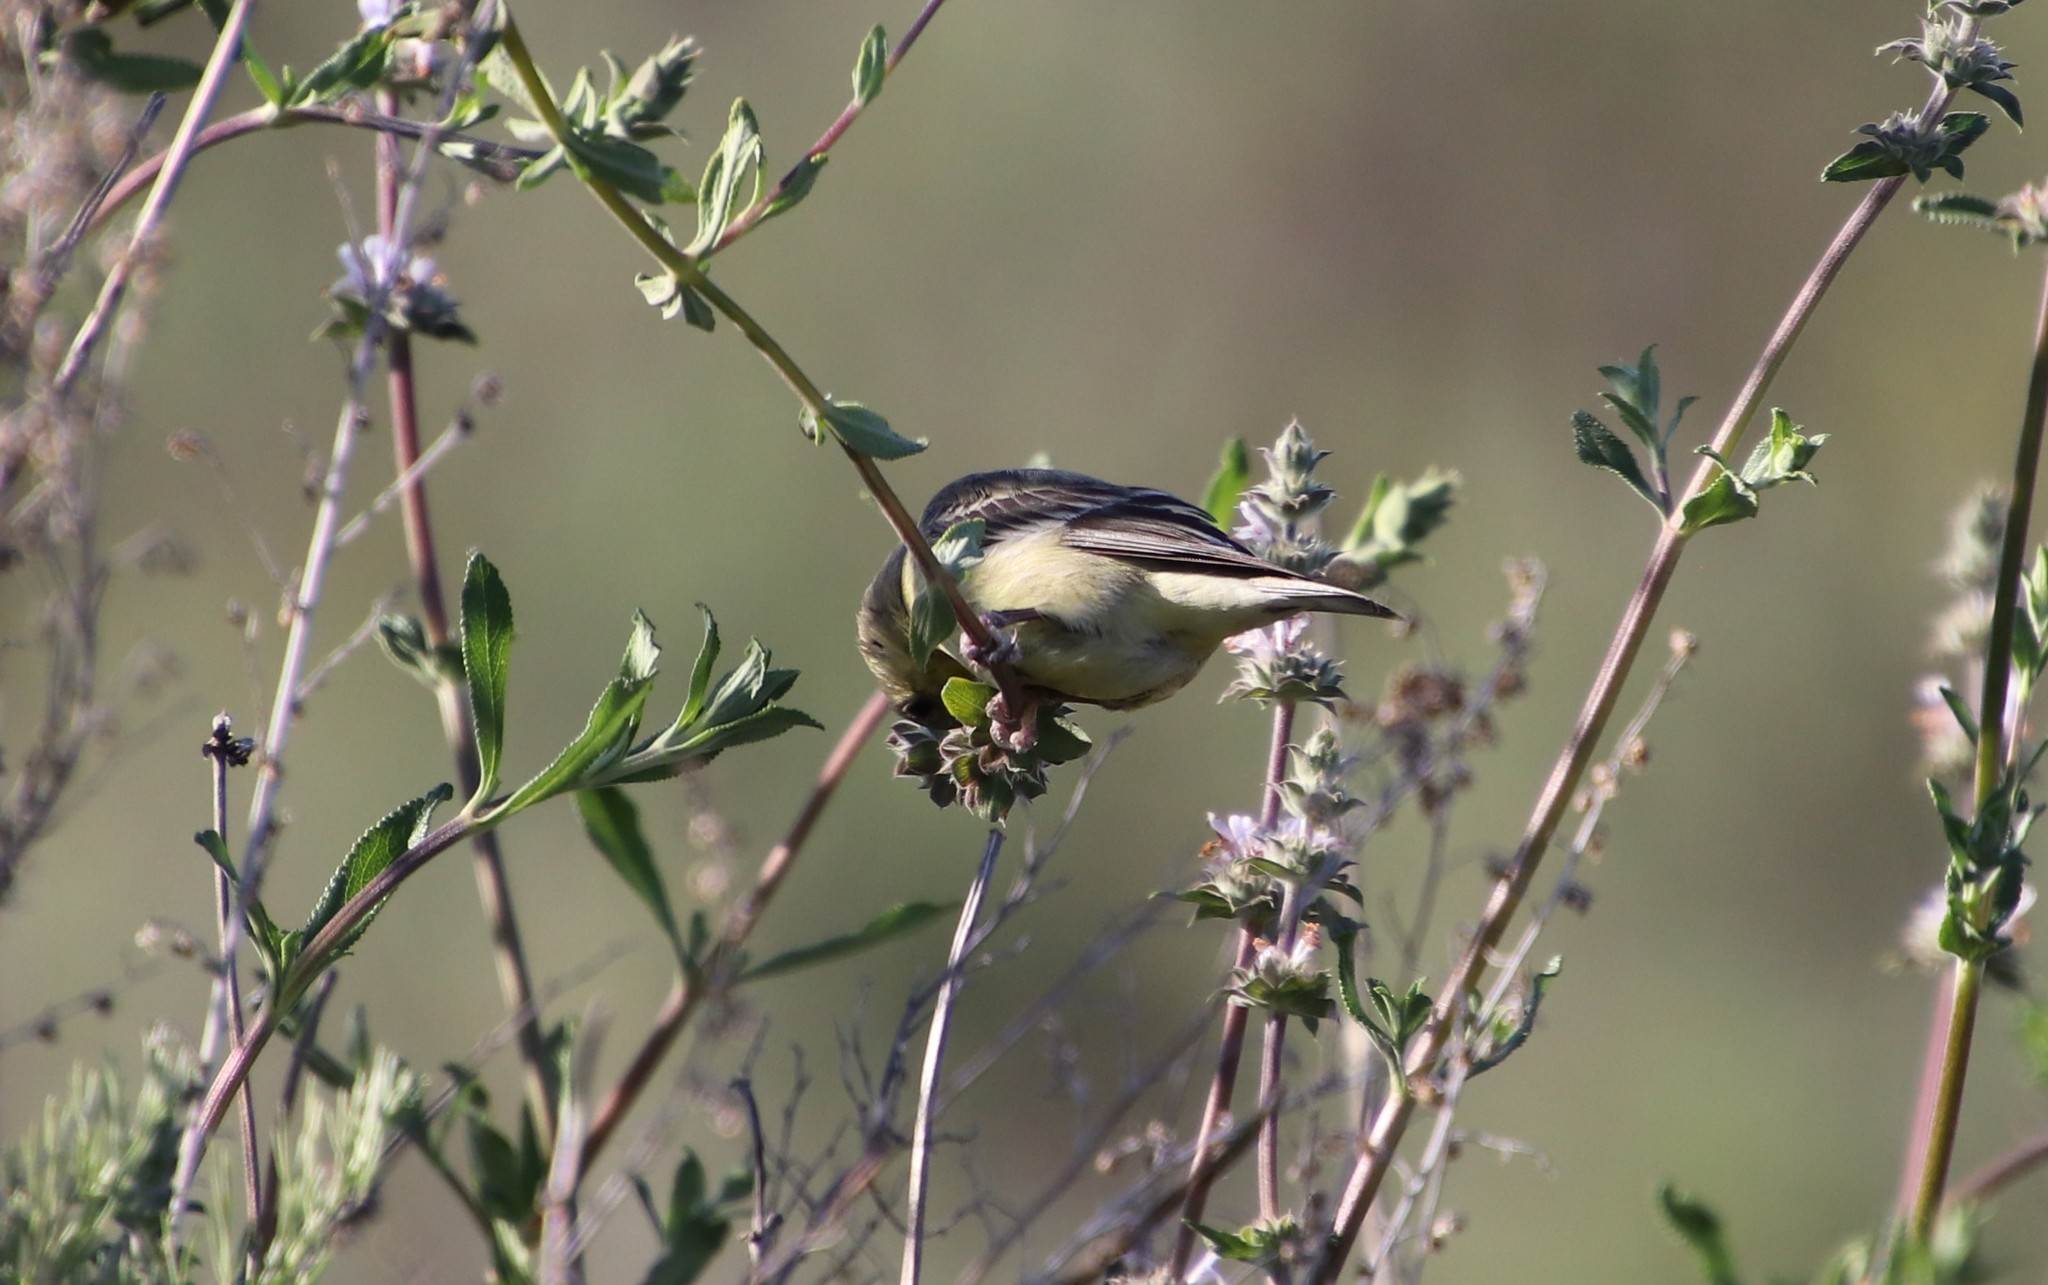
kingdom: Animalia
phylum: Chordata
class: Aves
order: Passeriformes
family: Fringillidae
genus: Spinus
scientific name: Spinus psaltria
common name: Lesser goldfinch
